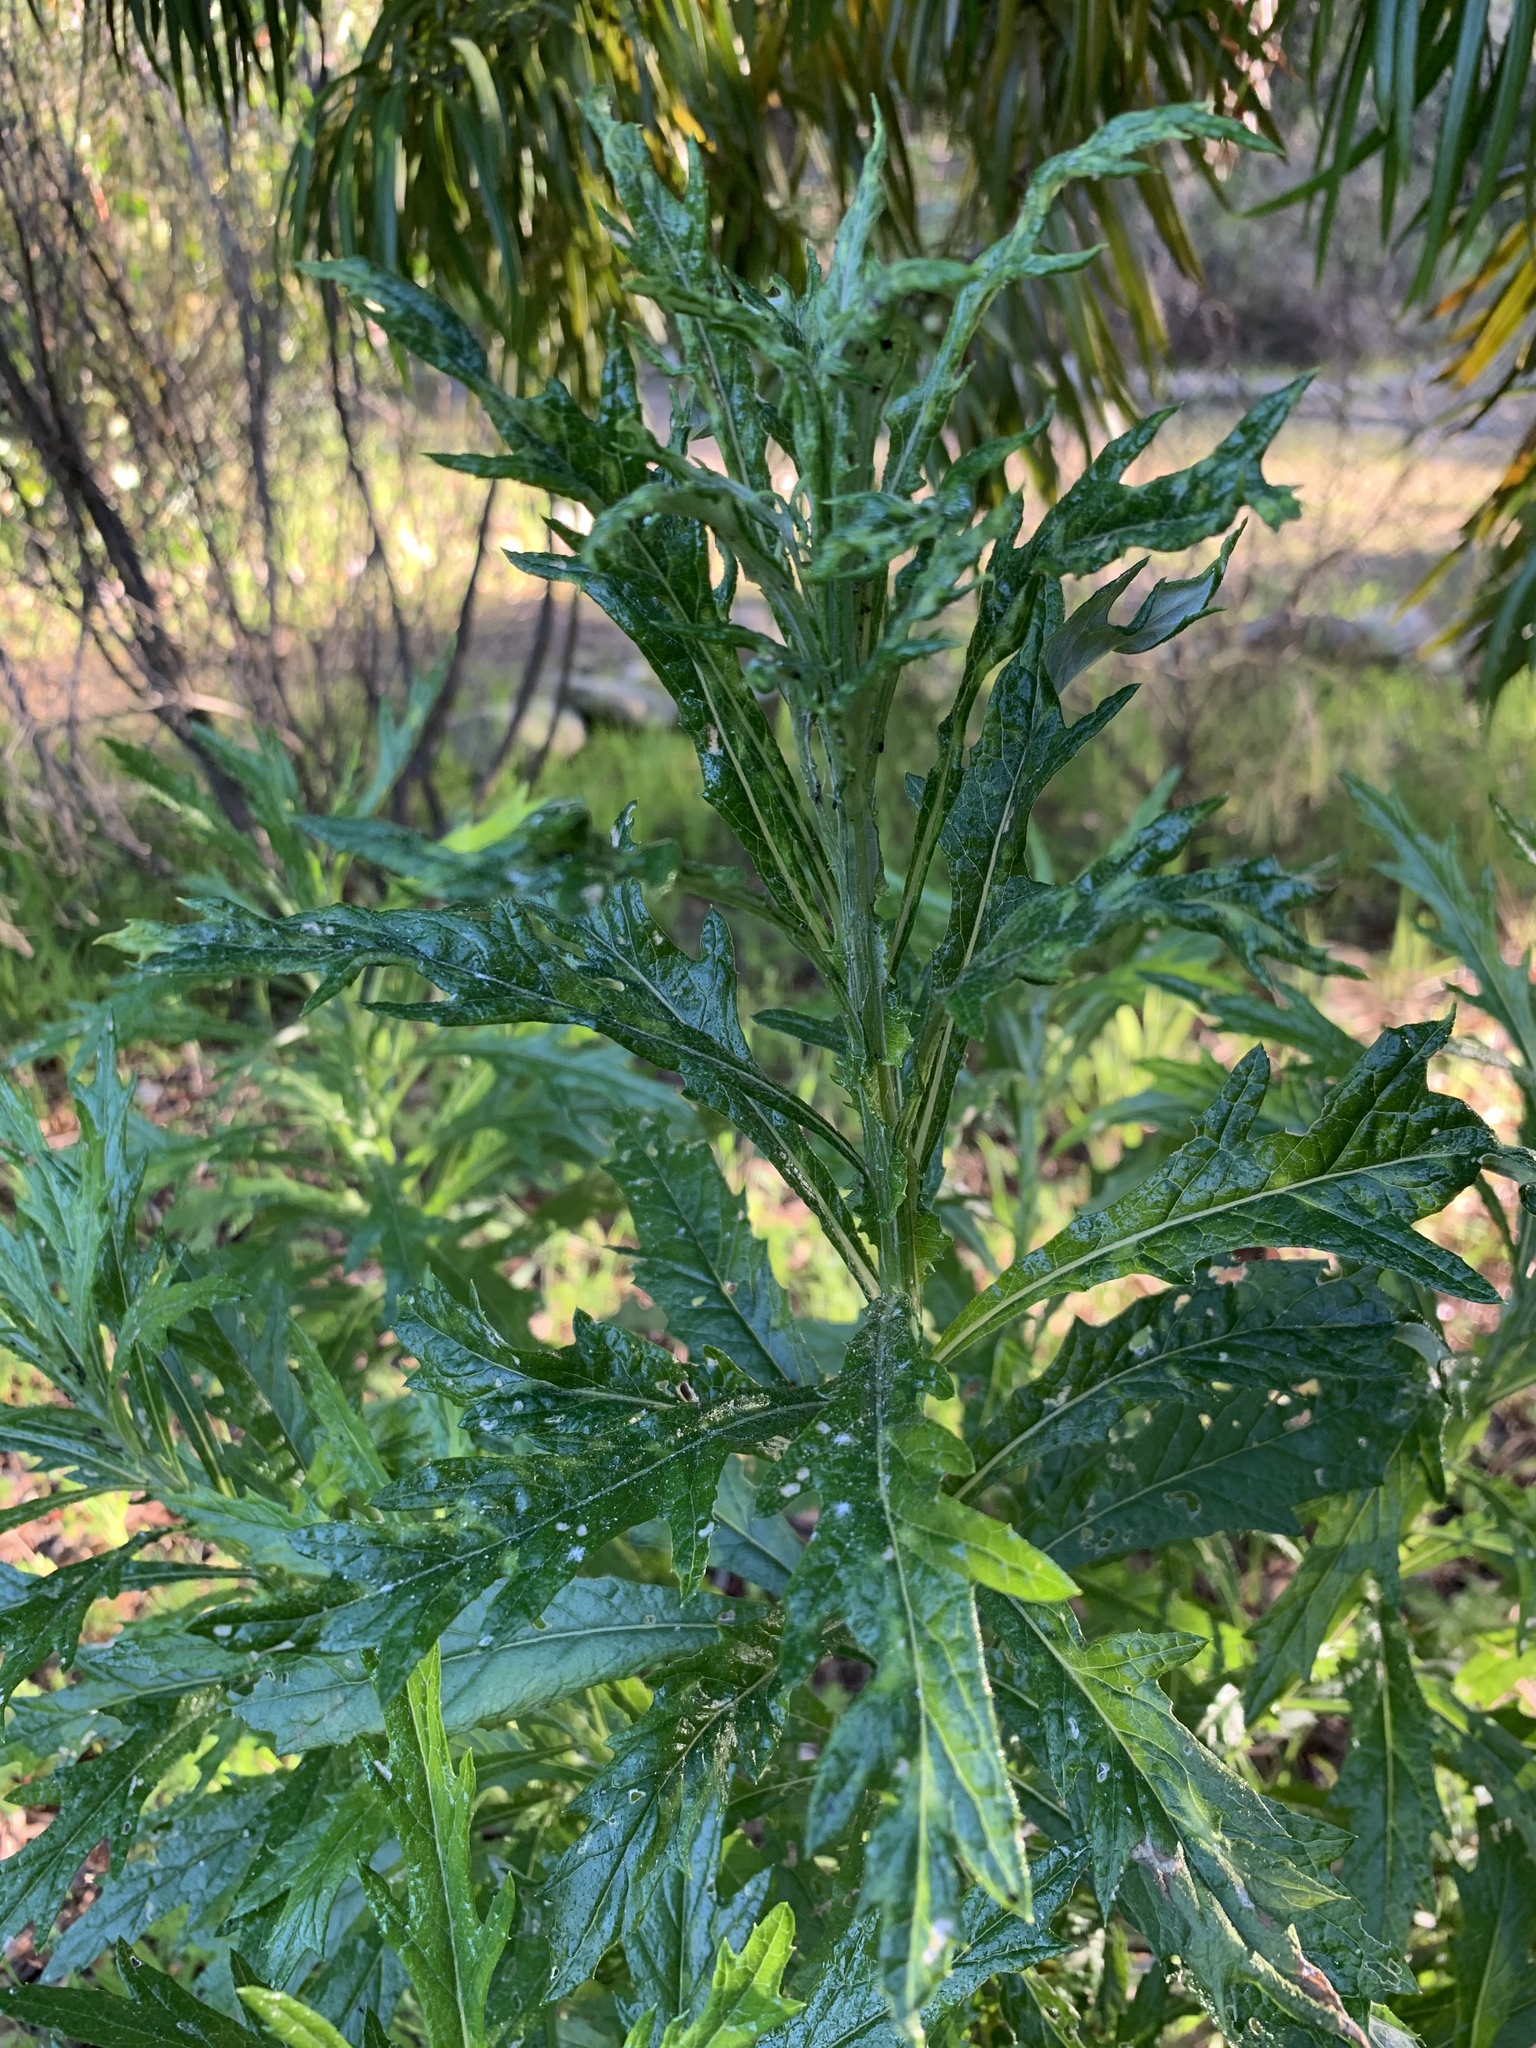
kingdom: Plantae
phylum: Tracheophyta
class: Magnoliopsida
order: Asterales
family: Asteraceae
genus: Senecio
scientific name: Senecio pterophorus
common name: Shoddy ragwort
